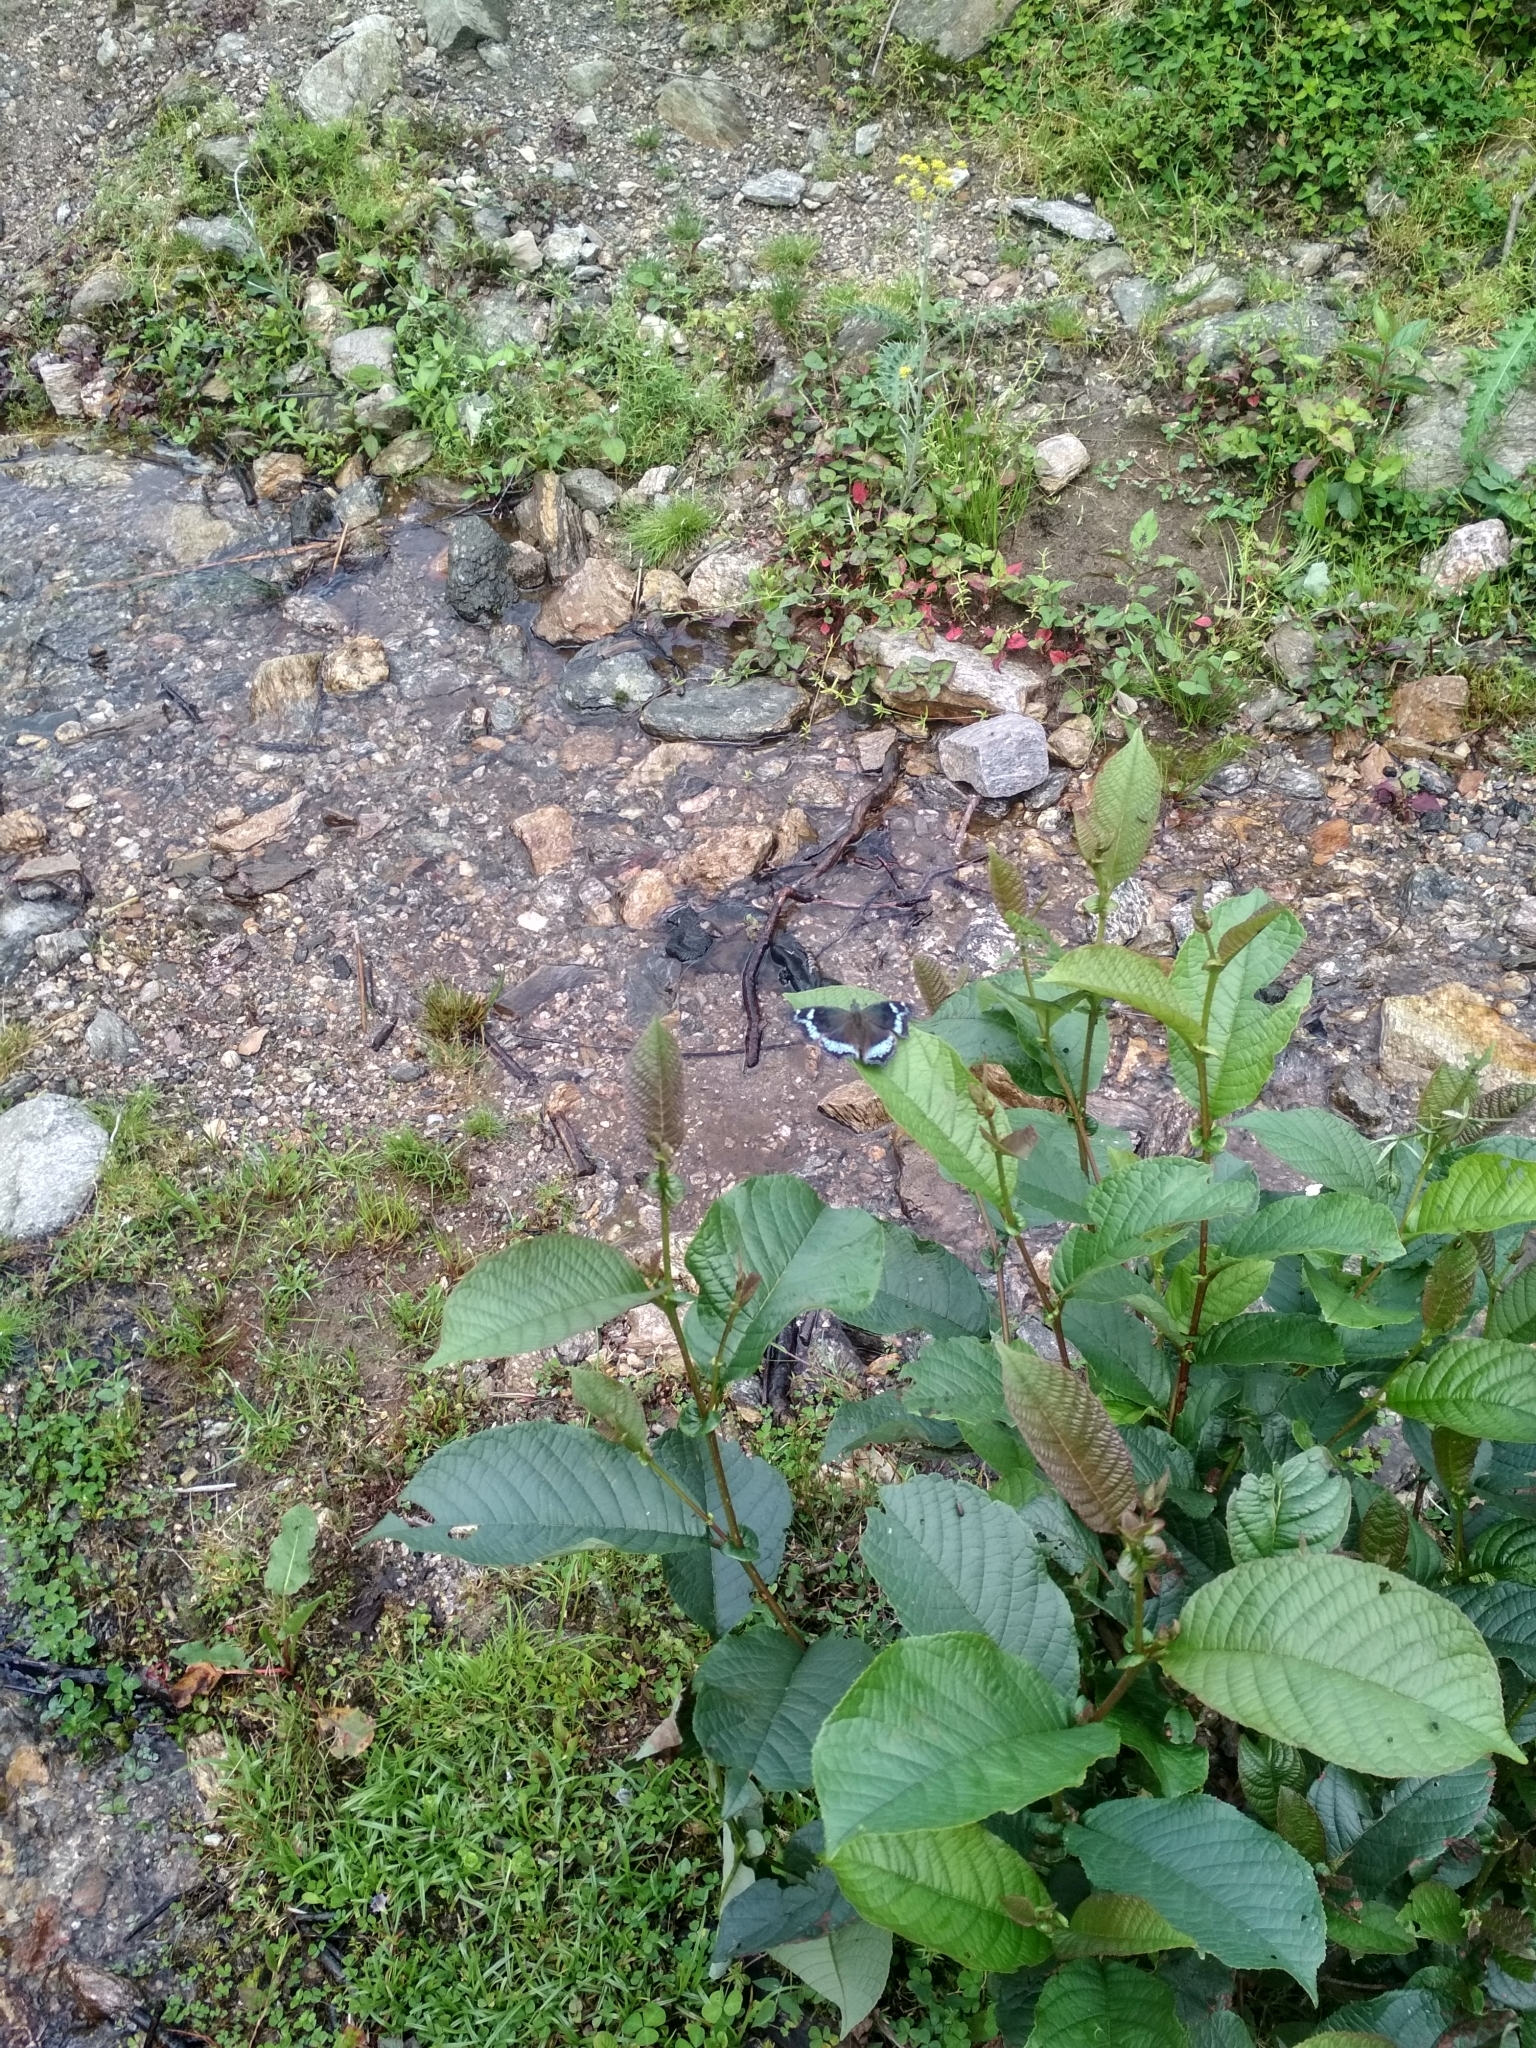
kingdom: Animalia
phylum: Arthropoda
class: Insecta
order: Lepidoptera
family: Nymphalidae
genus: Vanessa
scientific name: Vanessa Kaniska canace
